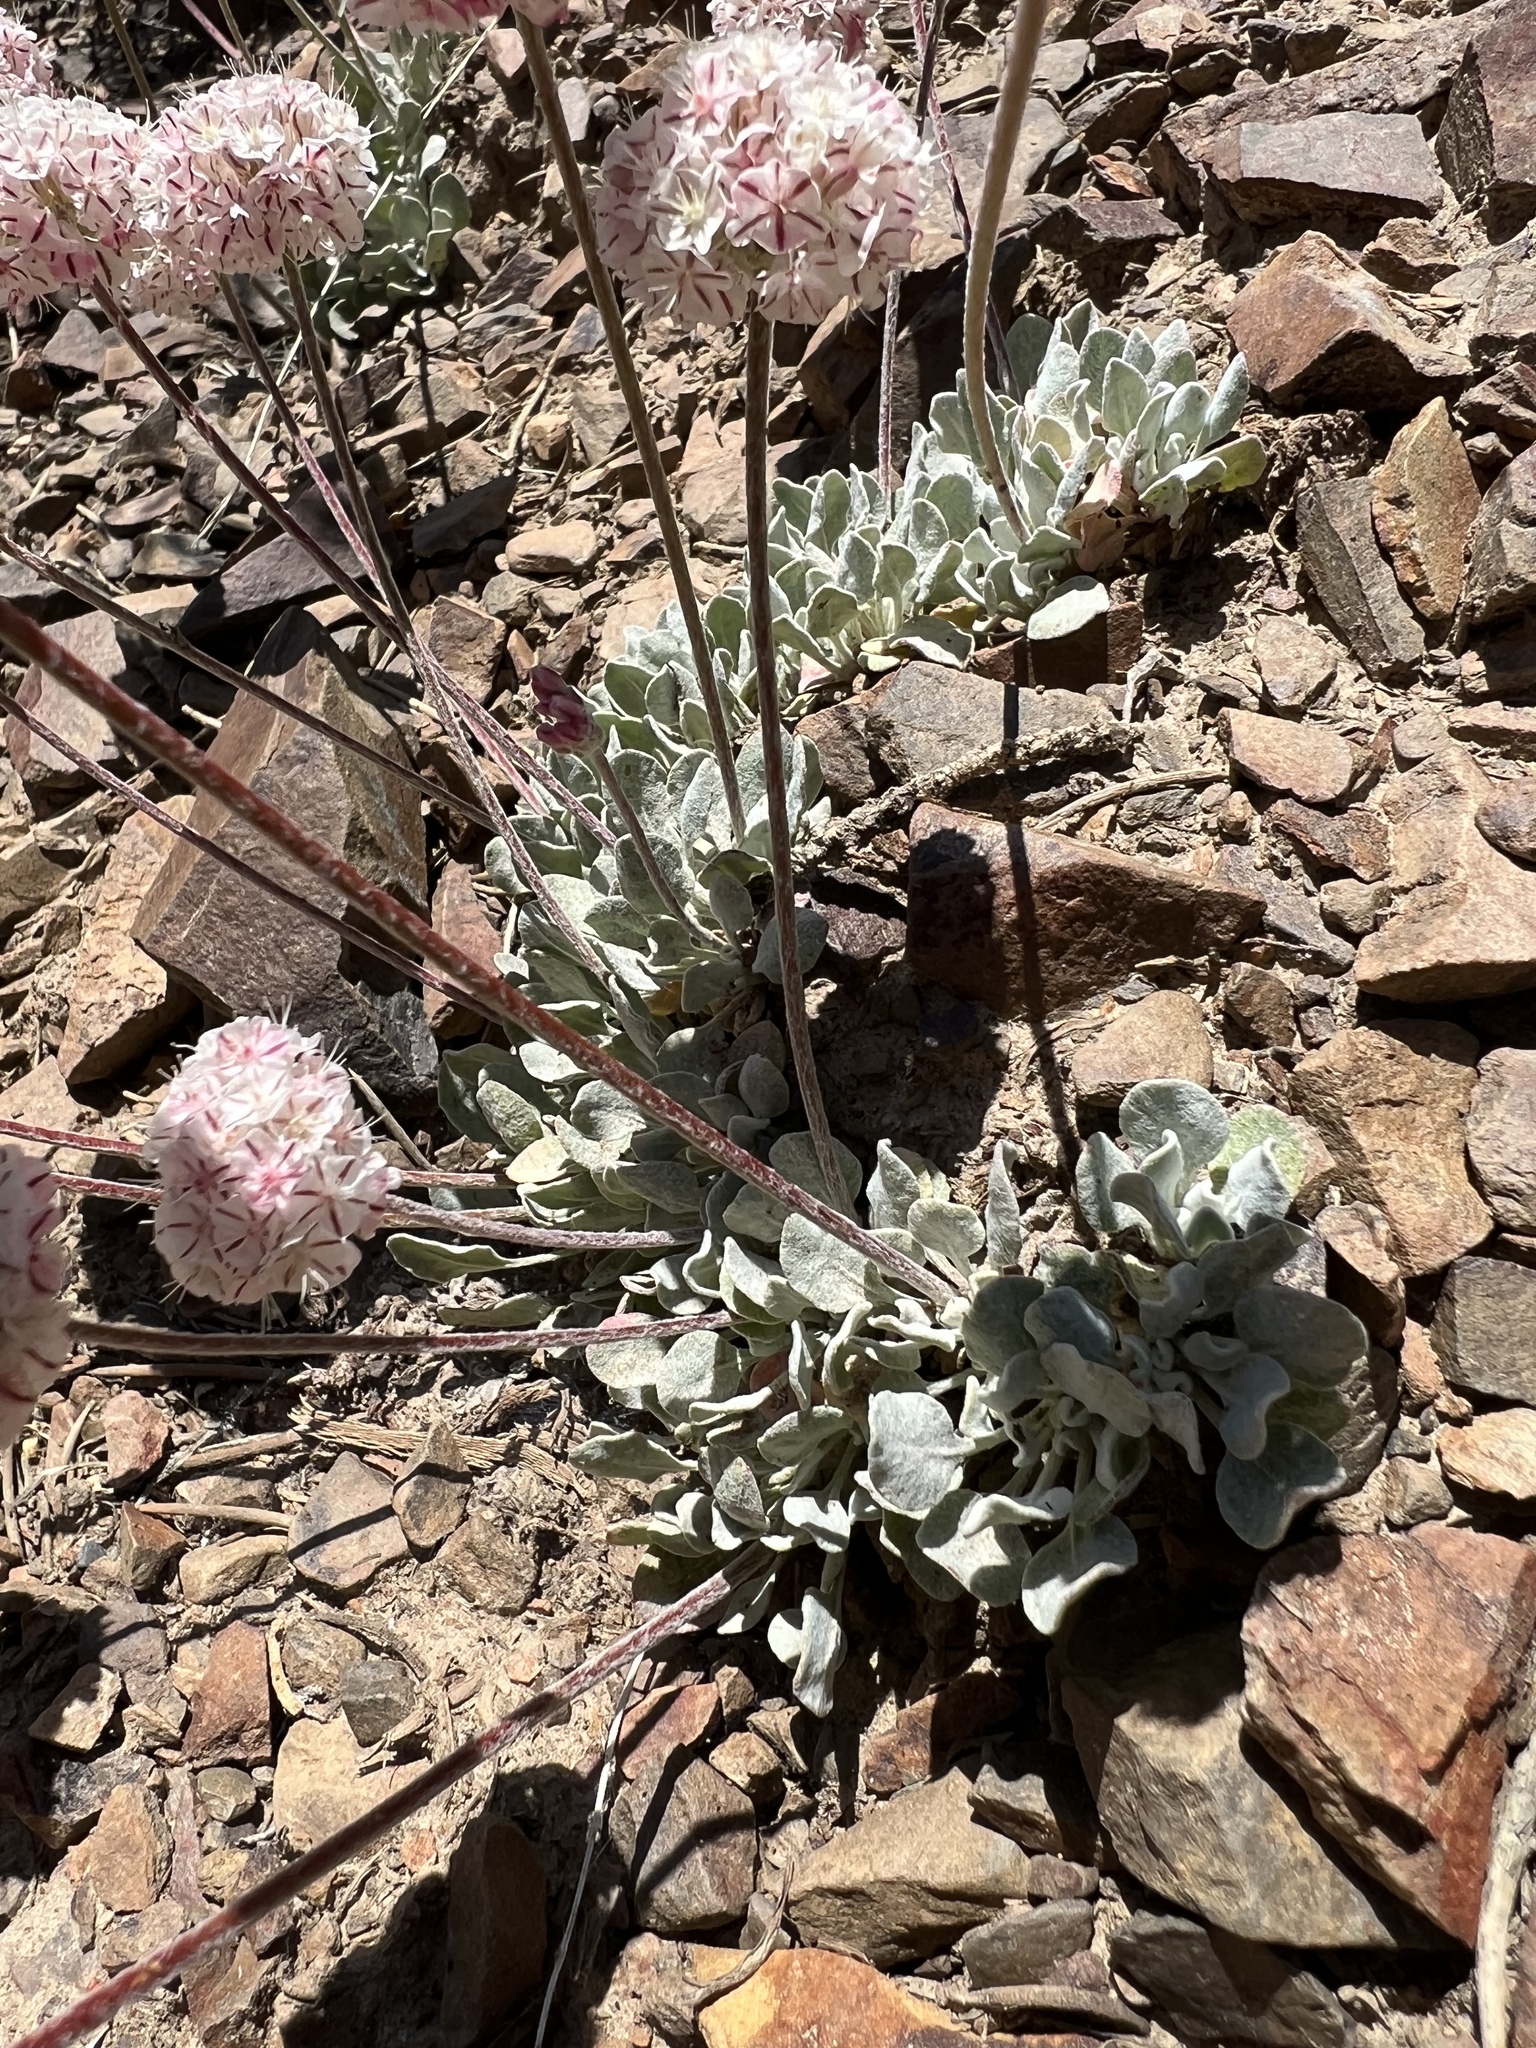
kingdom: Plantae
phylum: Tracheophyta
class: Magnoliopsida
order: Caryophyllales
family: Polygonaceae
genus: Eriogonum
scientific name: Eriogonum ovalifolium
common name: Cushion buckwheat
